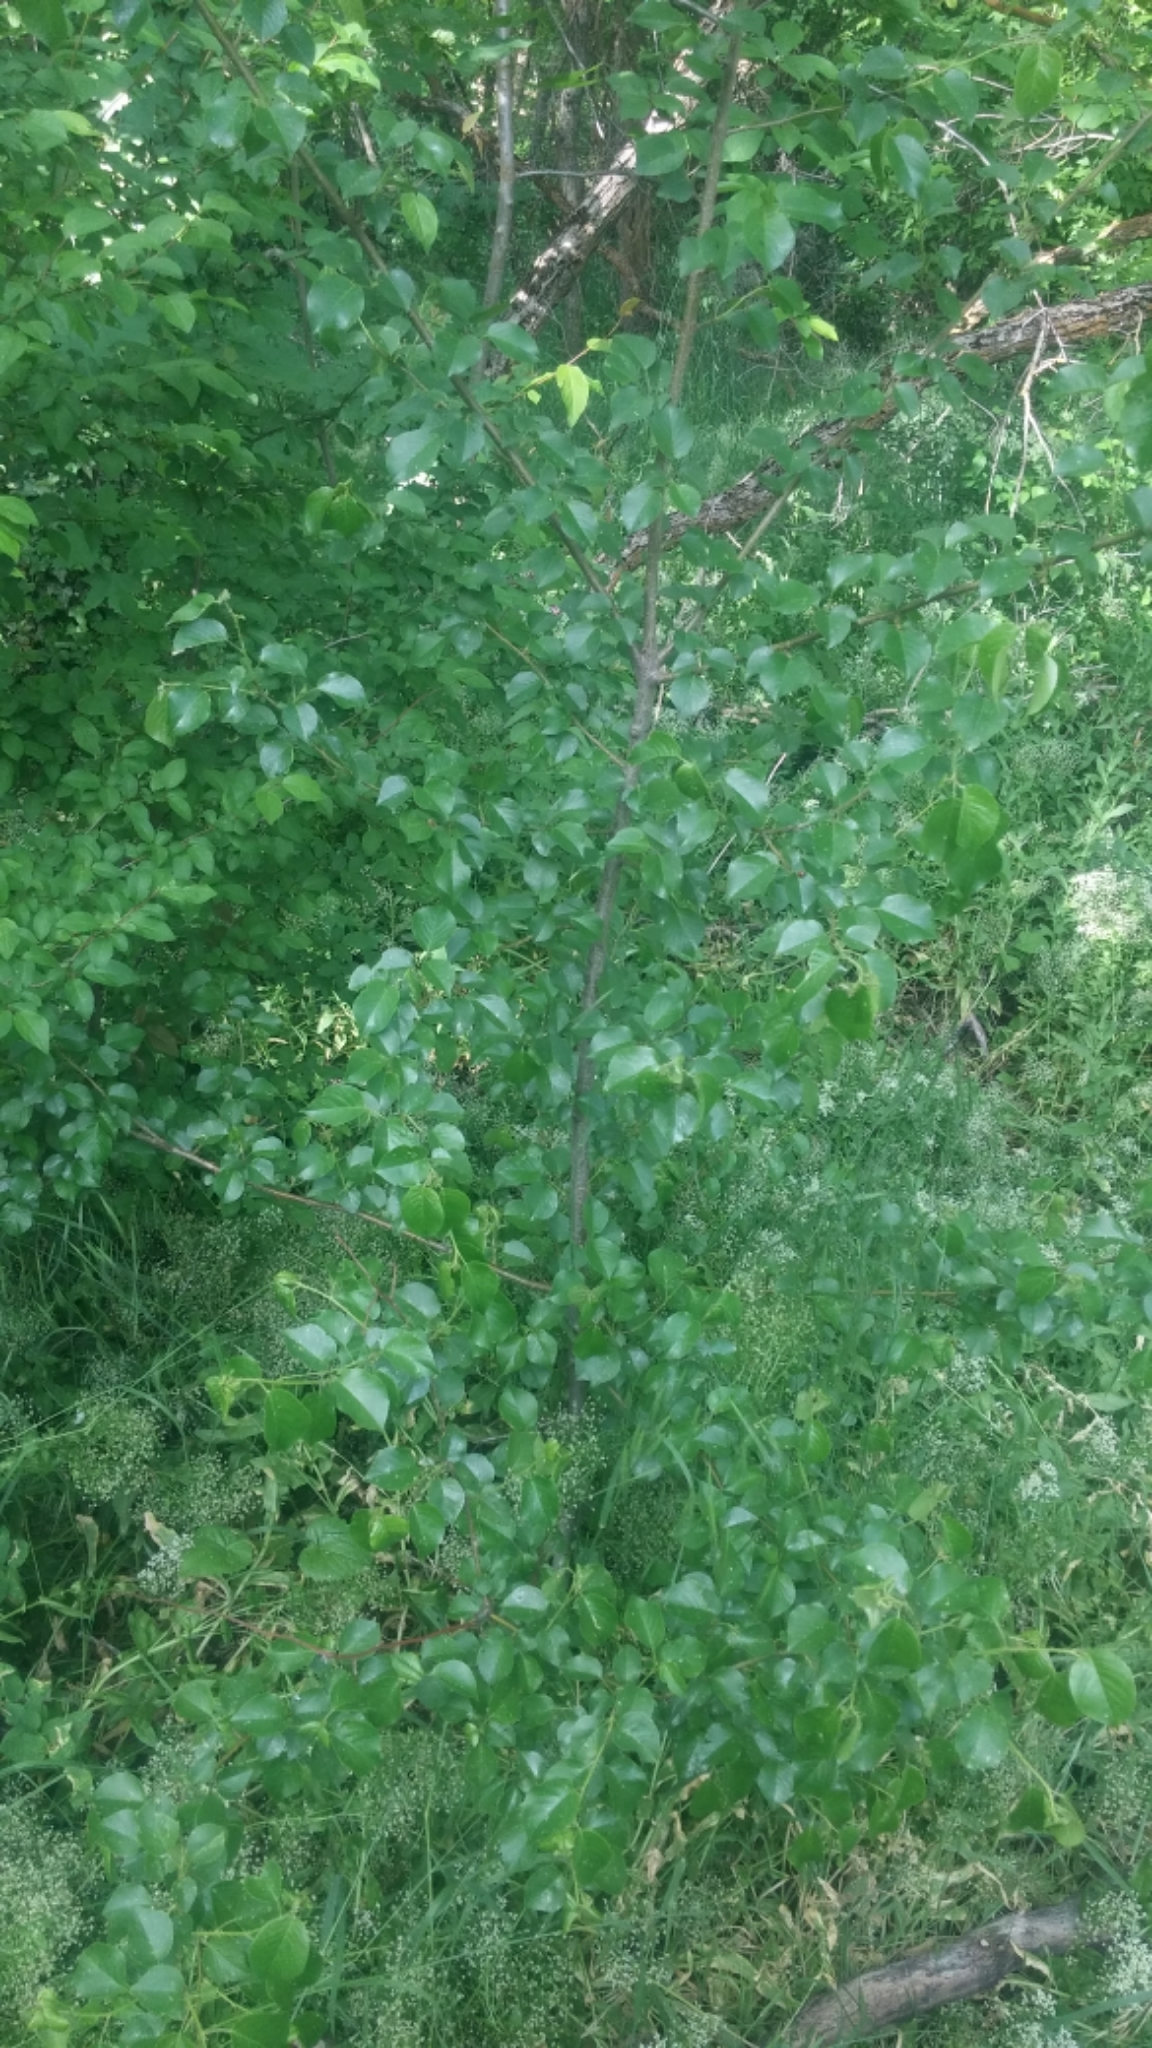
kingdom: Plantae
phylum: Tracheophyta
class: Magnoliopsida
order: Rosales
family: Rosaceae
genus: Prunus
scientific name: Prunus mahaleb
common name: Mahaleb cherry
